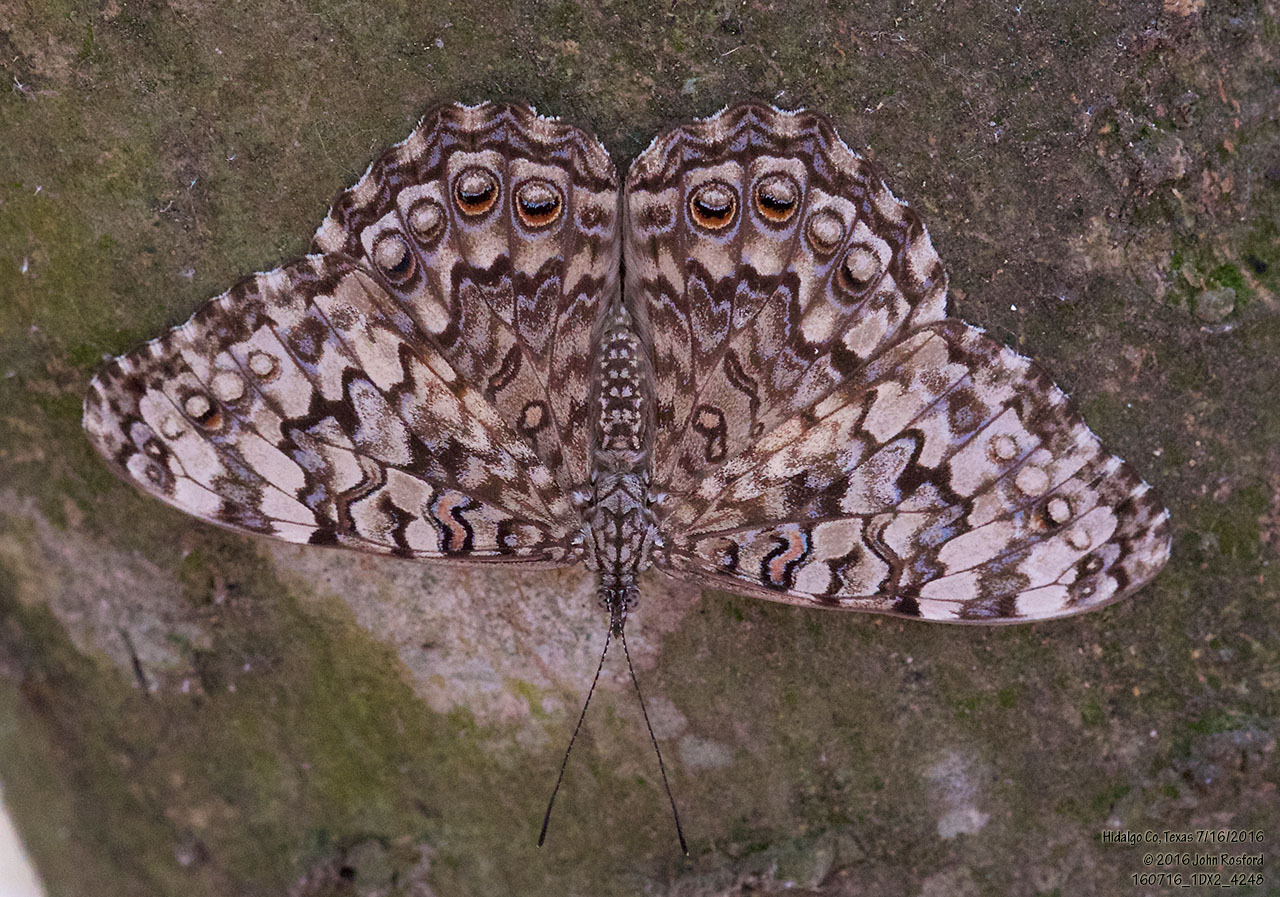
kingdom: Animalia
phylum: Arthropoda
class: Insecta
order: Lepidoptera
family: Nymphalidae
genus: Hamadryas
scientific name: Hamadryas februa
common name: Gray cracker
